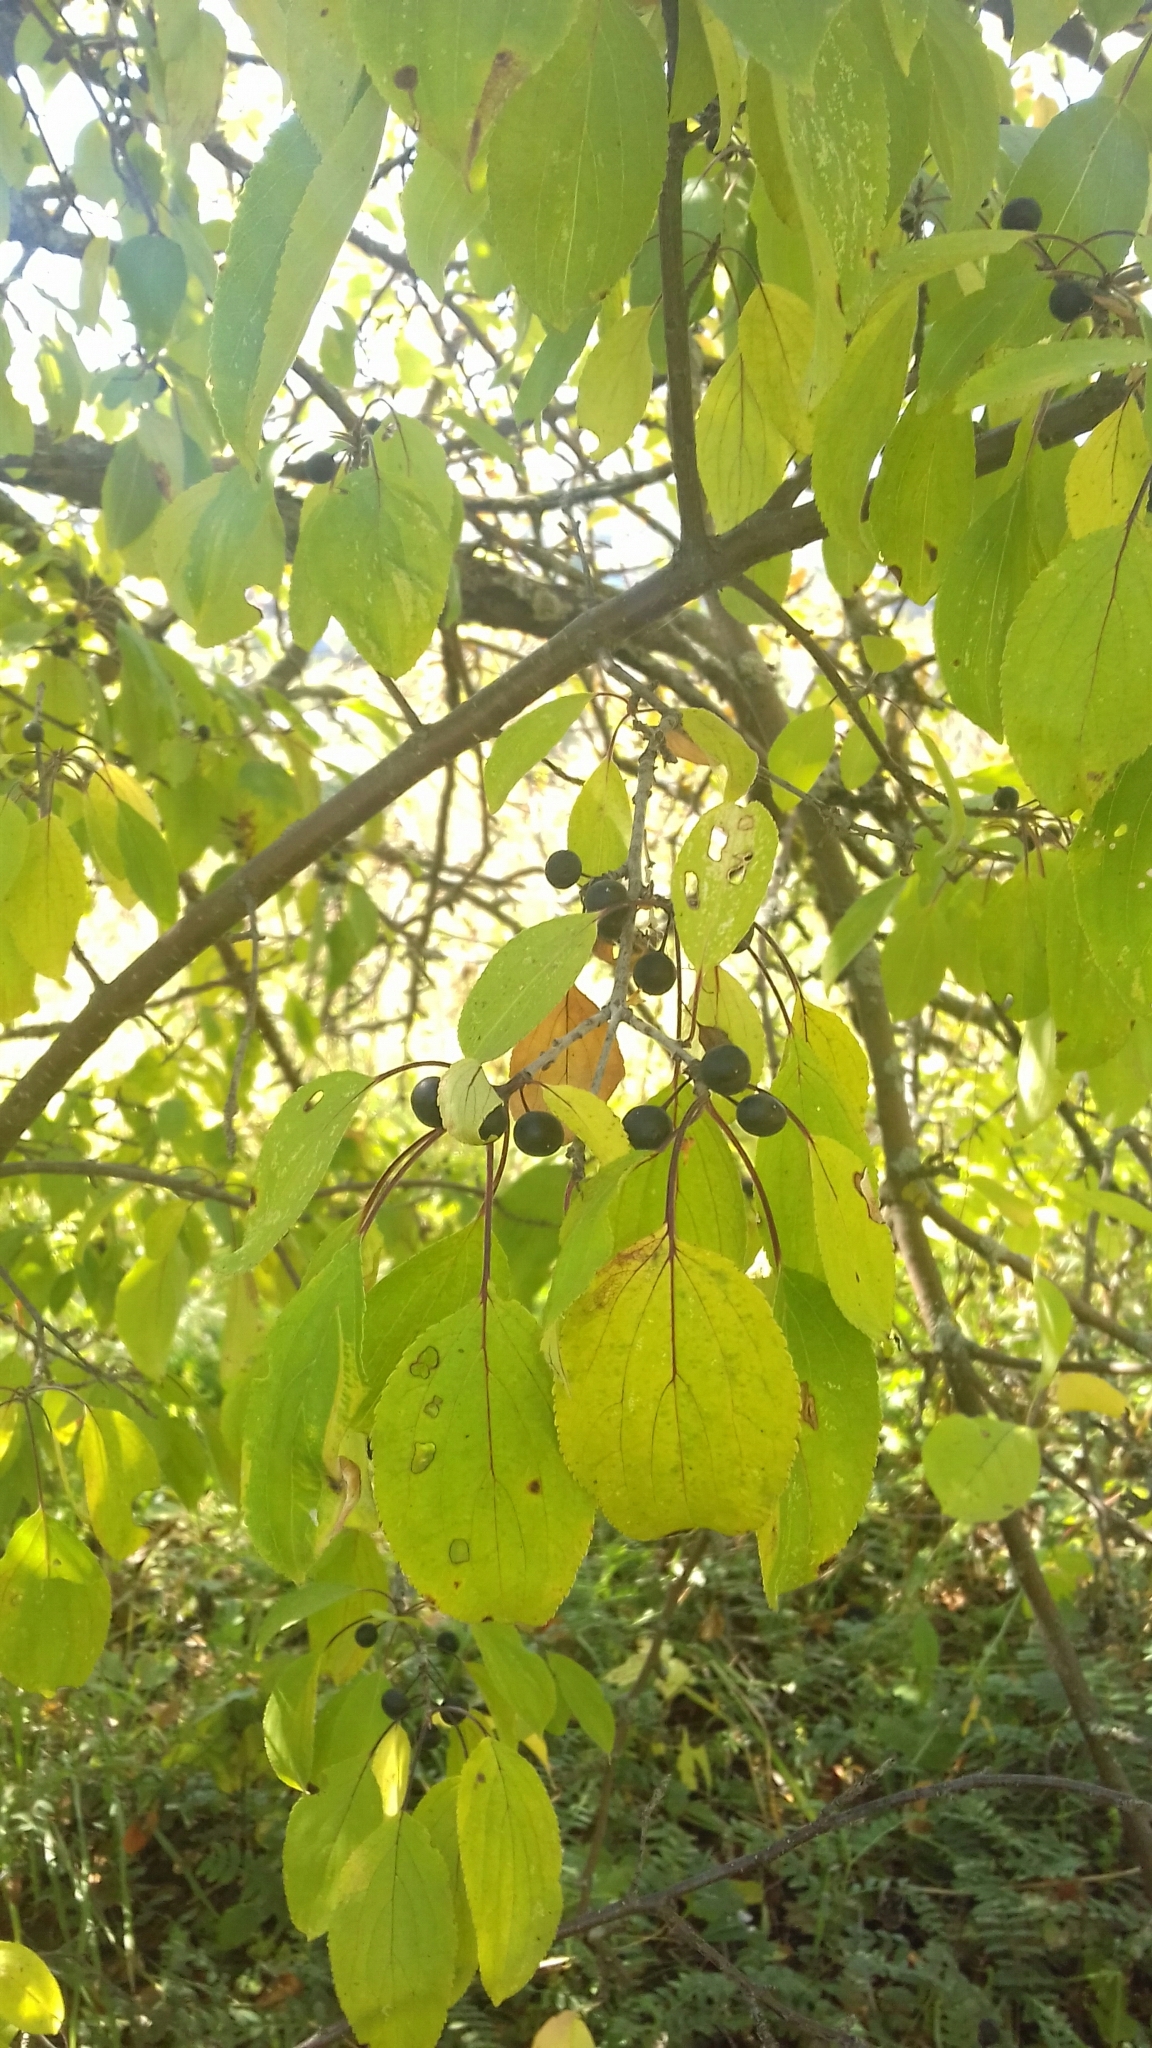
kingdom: Plantae
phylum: Tracheophyta
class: Magnoliopsida
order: Rosales
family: Rhamnaceae
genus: Rhamnus
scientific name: Rhamnus cathartica
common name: Common buckthorn
